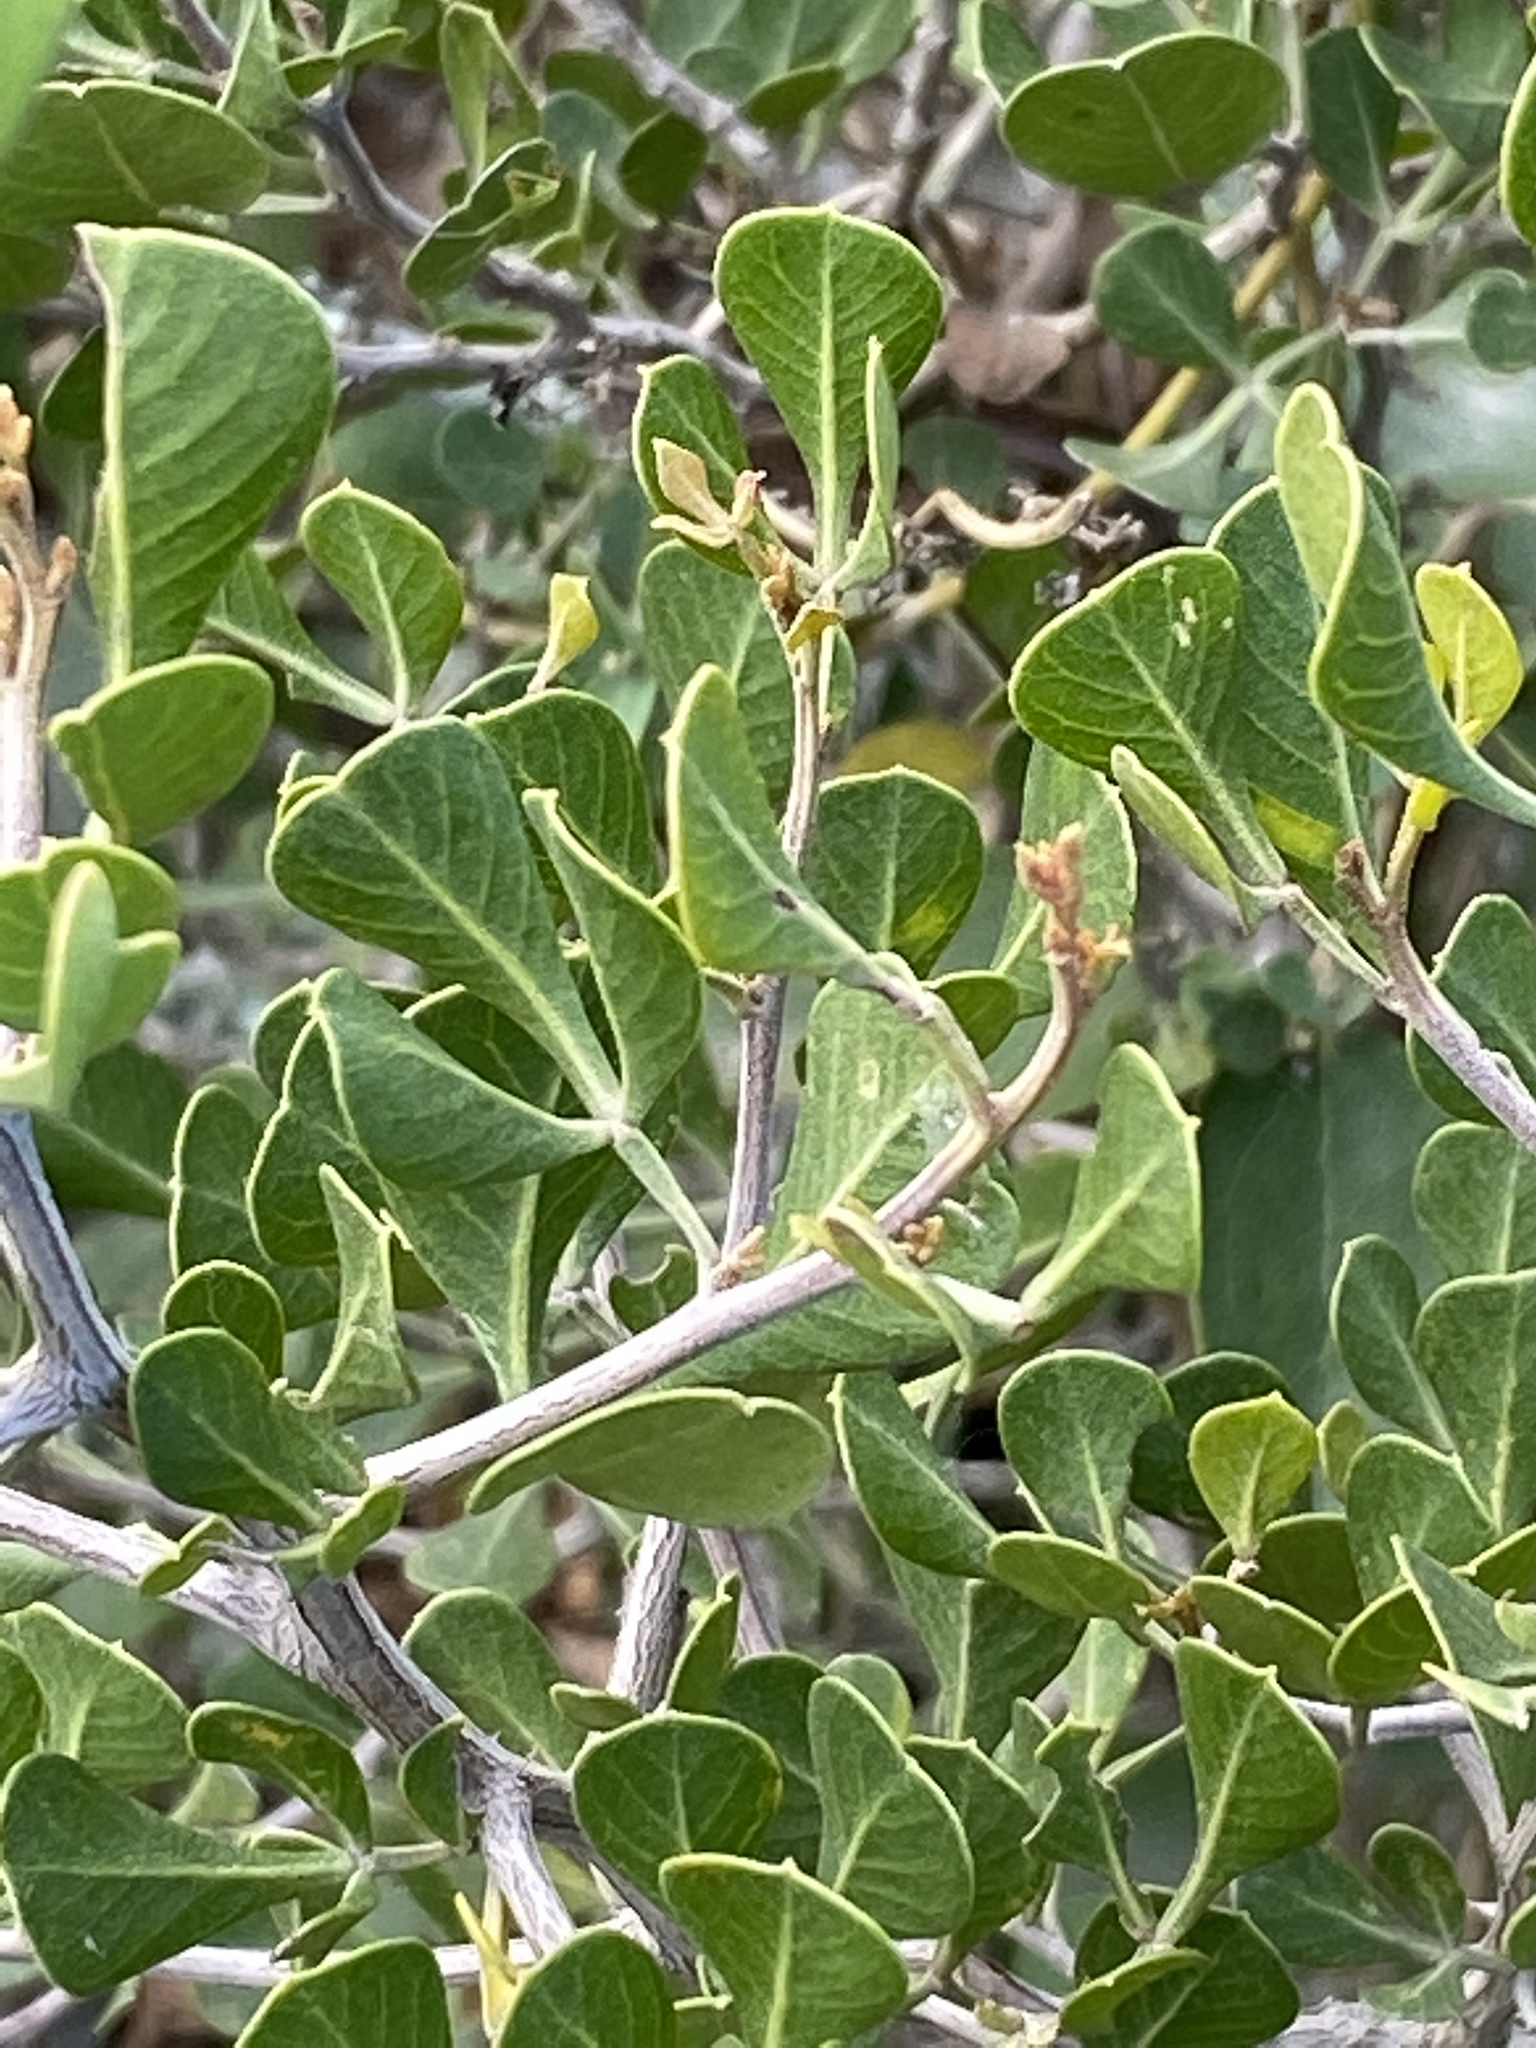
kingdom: Plantae
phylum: Tracheophyta
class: Magnoliopsida
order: Sapindales
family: Anacardiaceae
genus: Searsia
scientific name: Searsia glauca
